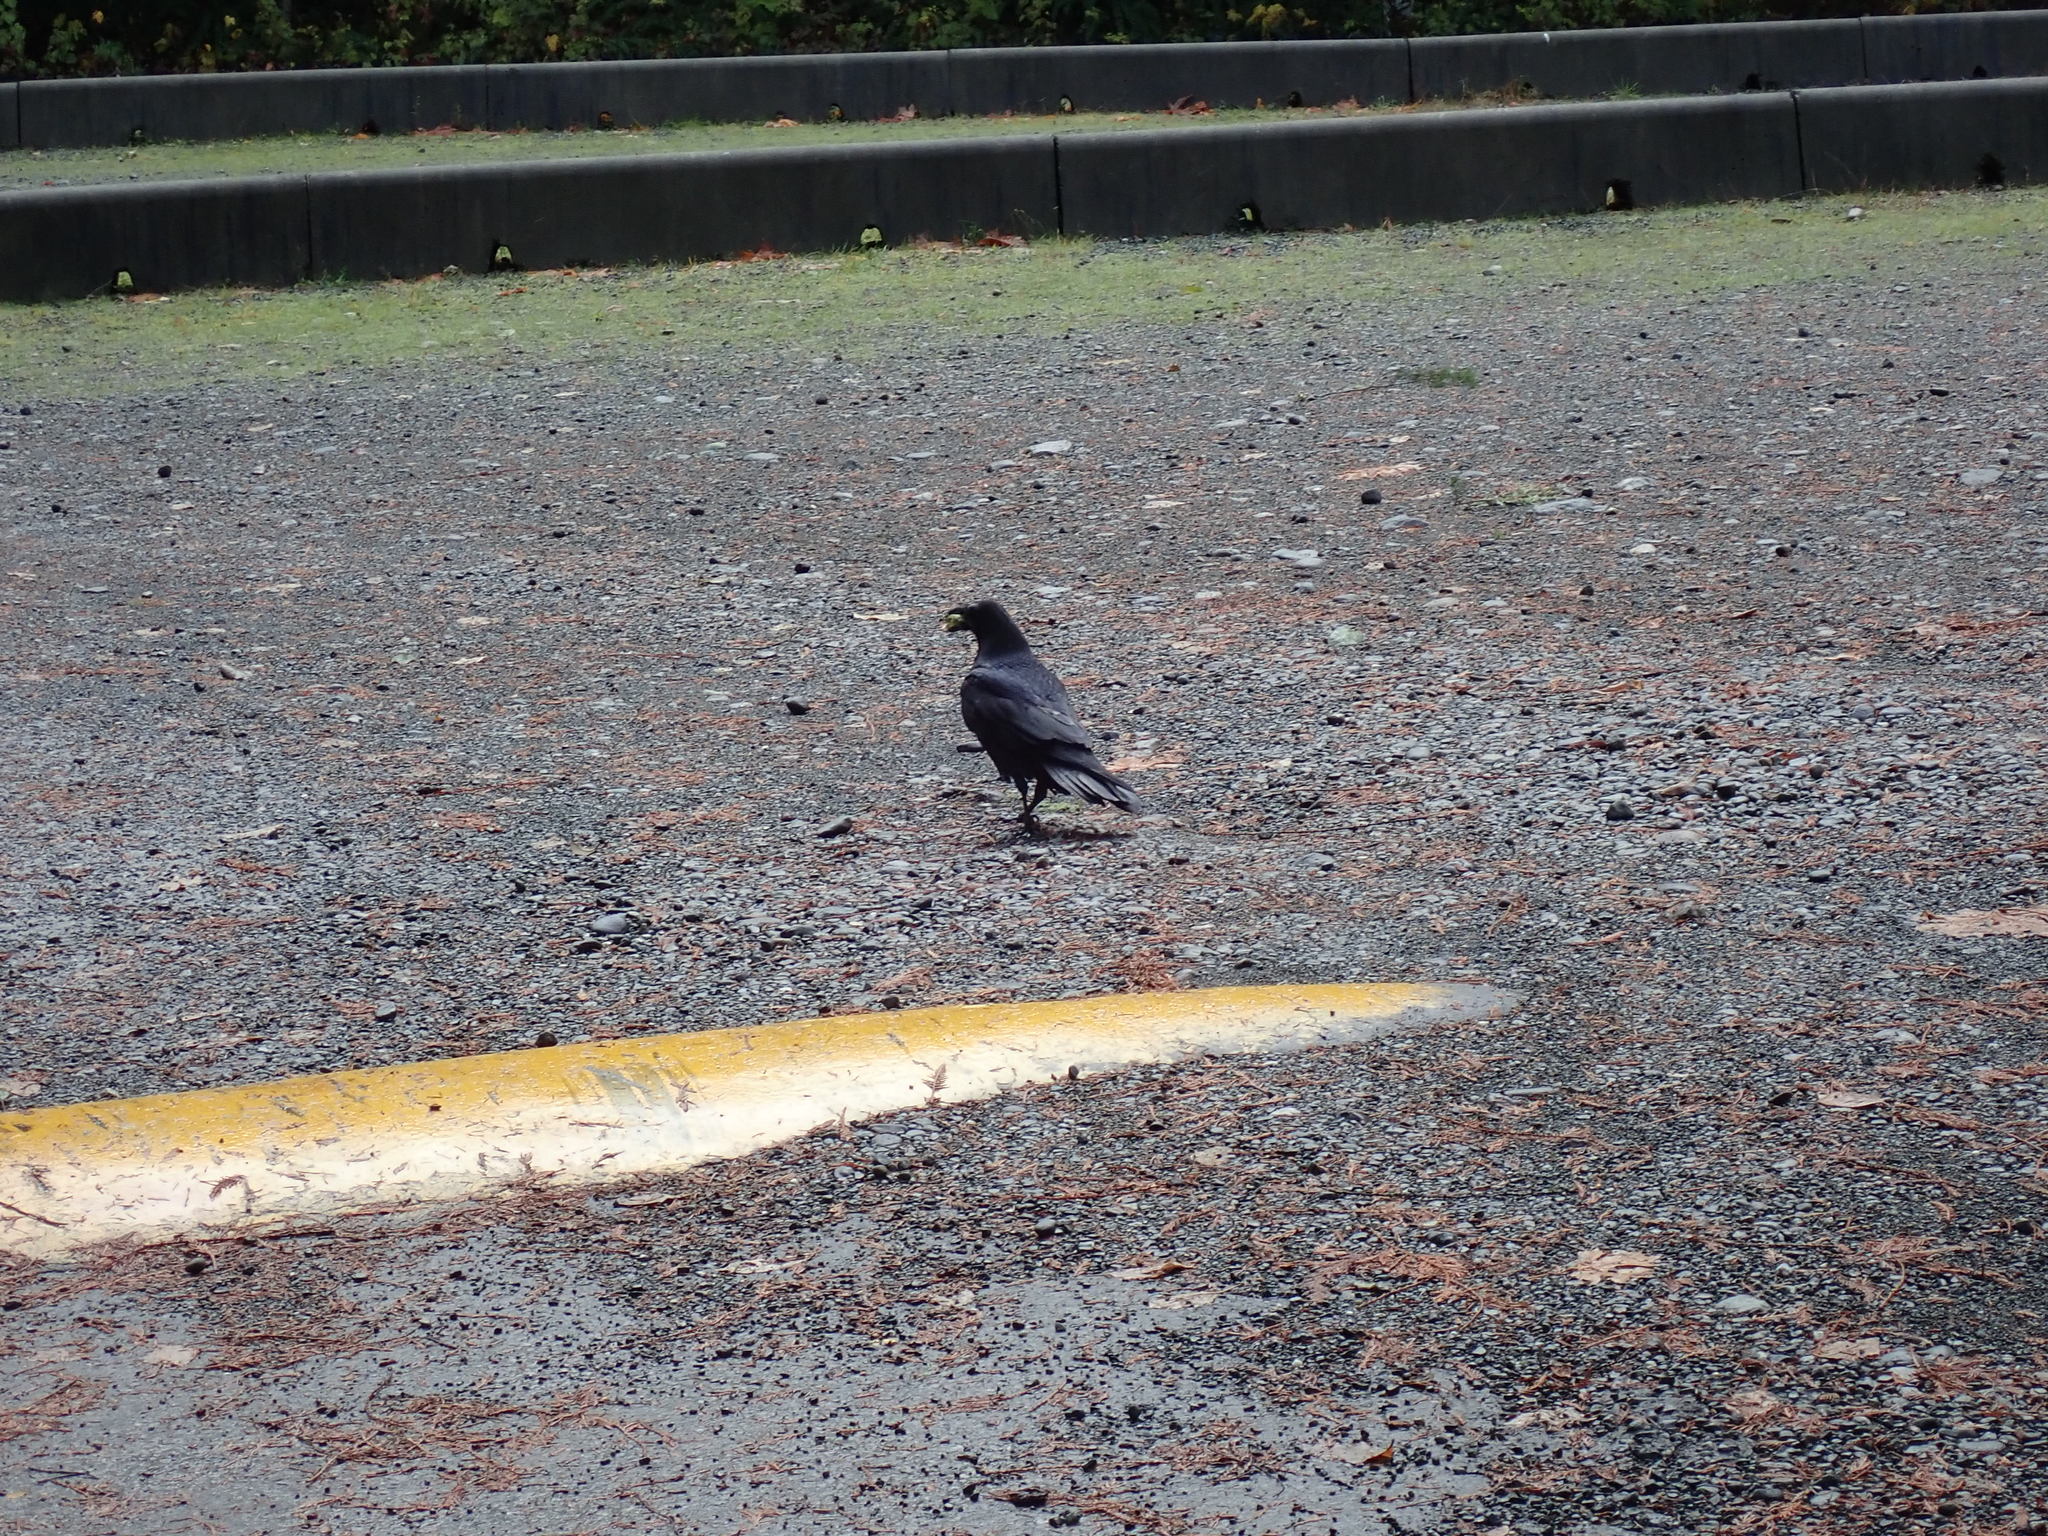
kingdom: Animalia
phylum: Chordata
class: Aves
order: Passeriformes
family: Corvidae
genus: Corvus
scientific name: Corvus corax
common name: Common raven
